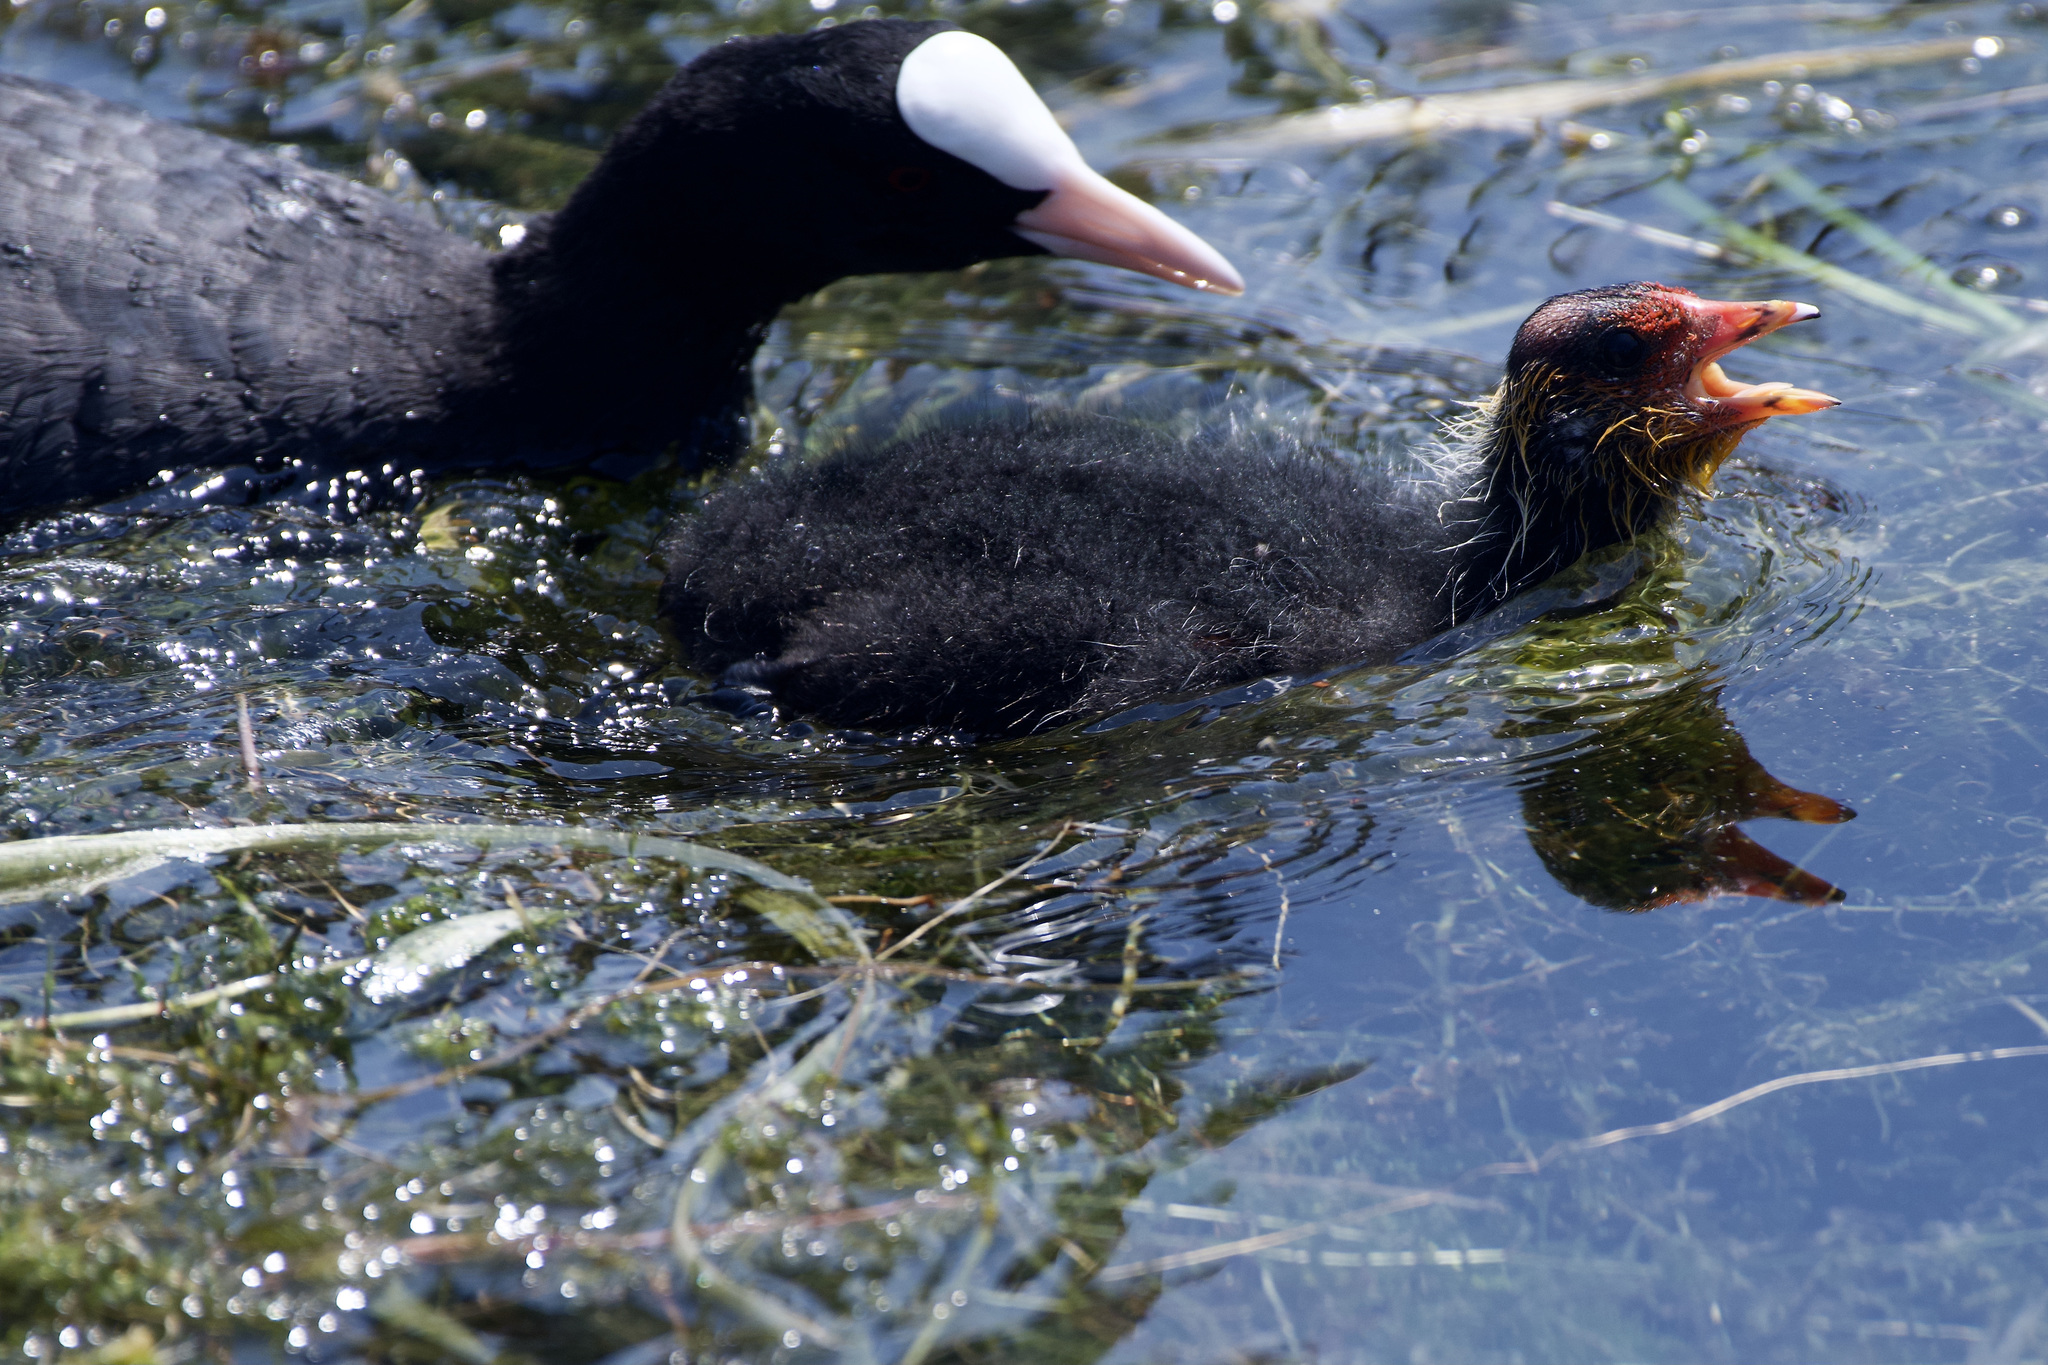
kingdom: Animalia
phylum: Chordata
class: Aves
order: Gruiformes
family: Rallidae
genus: Fulica
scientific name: Fulica atra
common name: Eurasian coot
